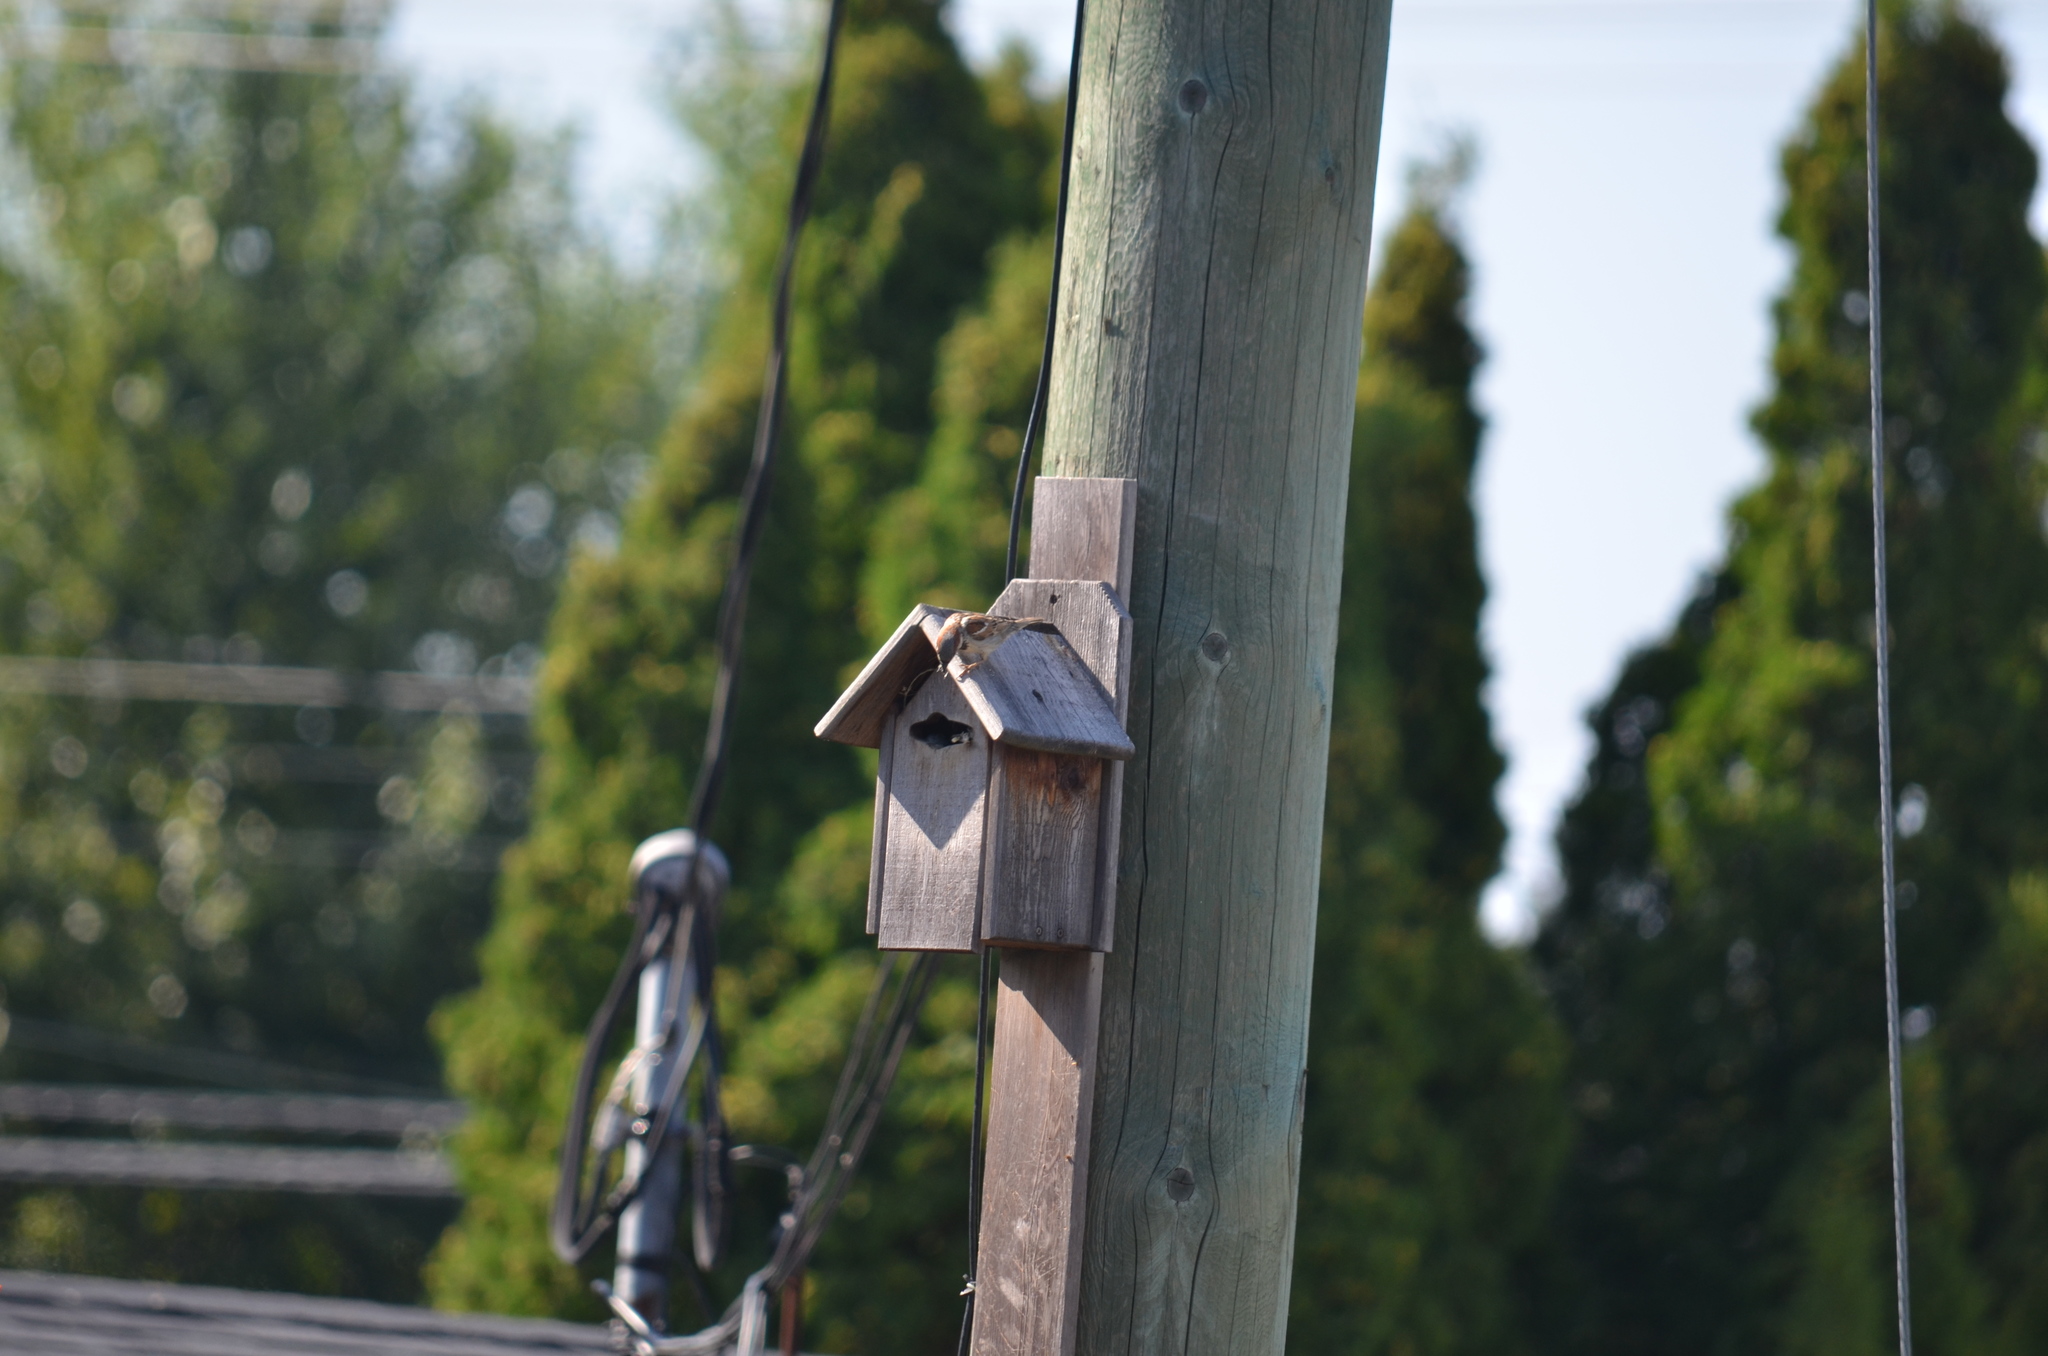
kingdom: Animalia
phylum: Chordata
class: Aves
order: Passeriformes
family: Passeridae
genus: Passer
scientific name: Passer domesticus
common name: House sparrow
